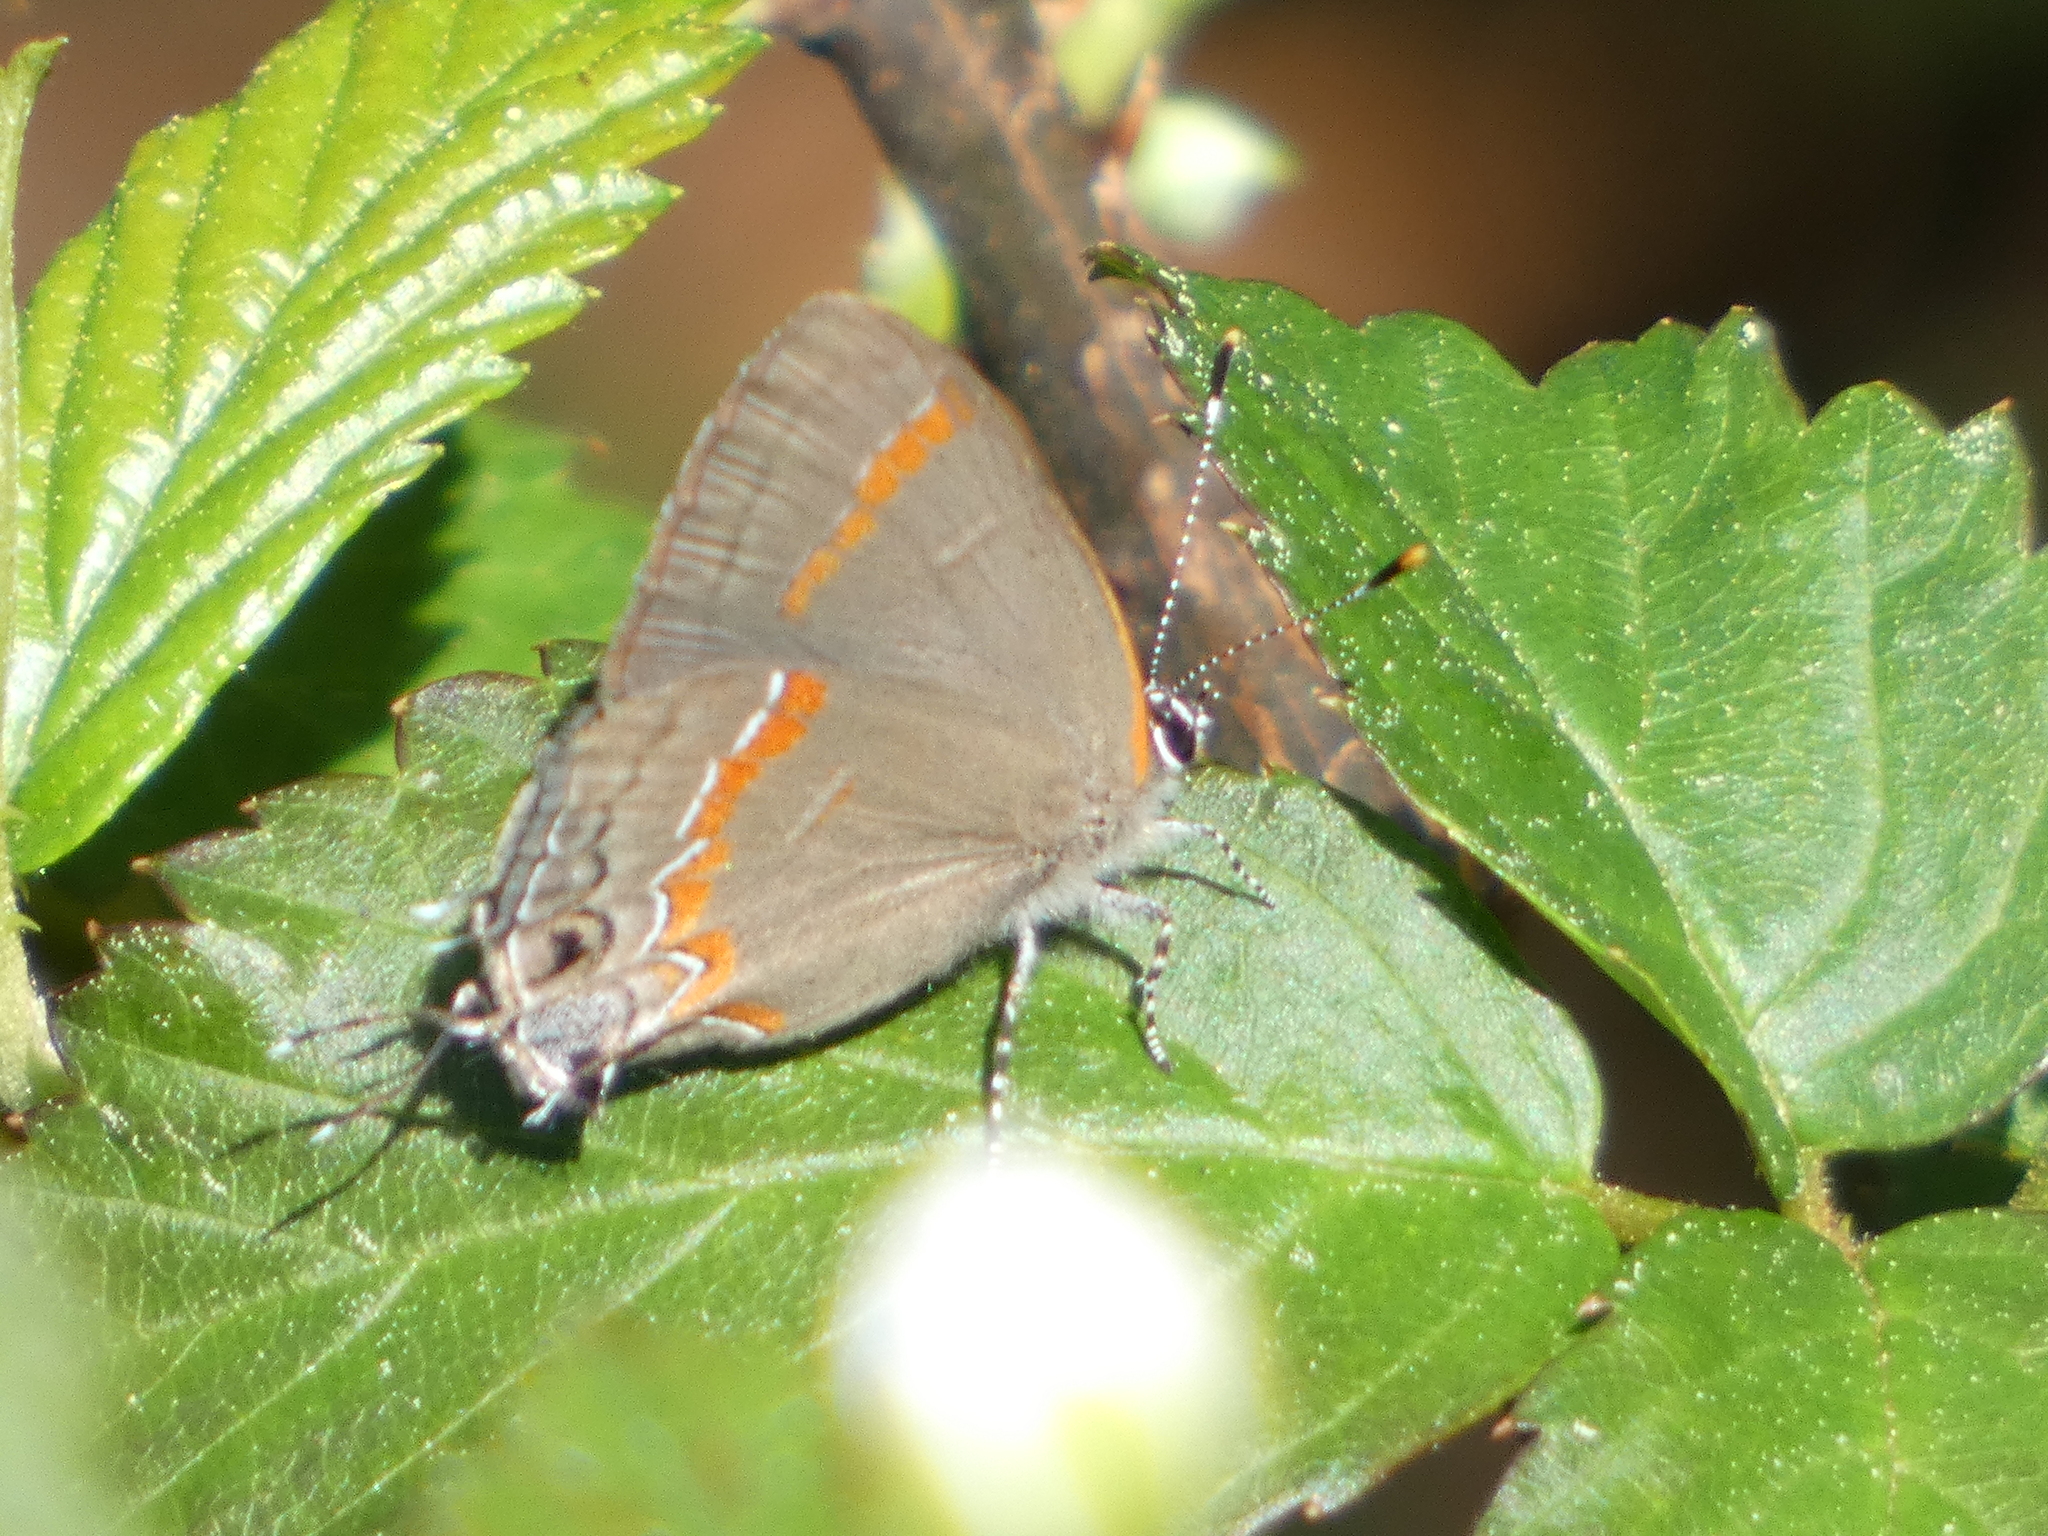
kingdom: Animalia
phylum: Arthropoda
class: Insecta
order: Lepidoptera
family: Lycaenidae
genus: Calycopis
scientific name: Calycopis cecrops
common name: Red-banded hairstreak
